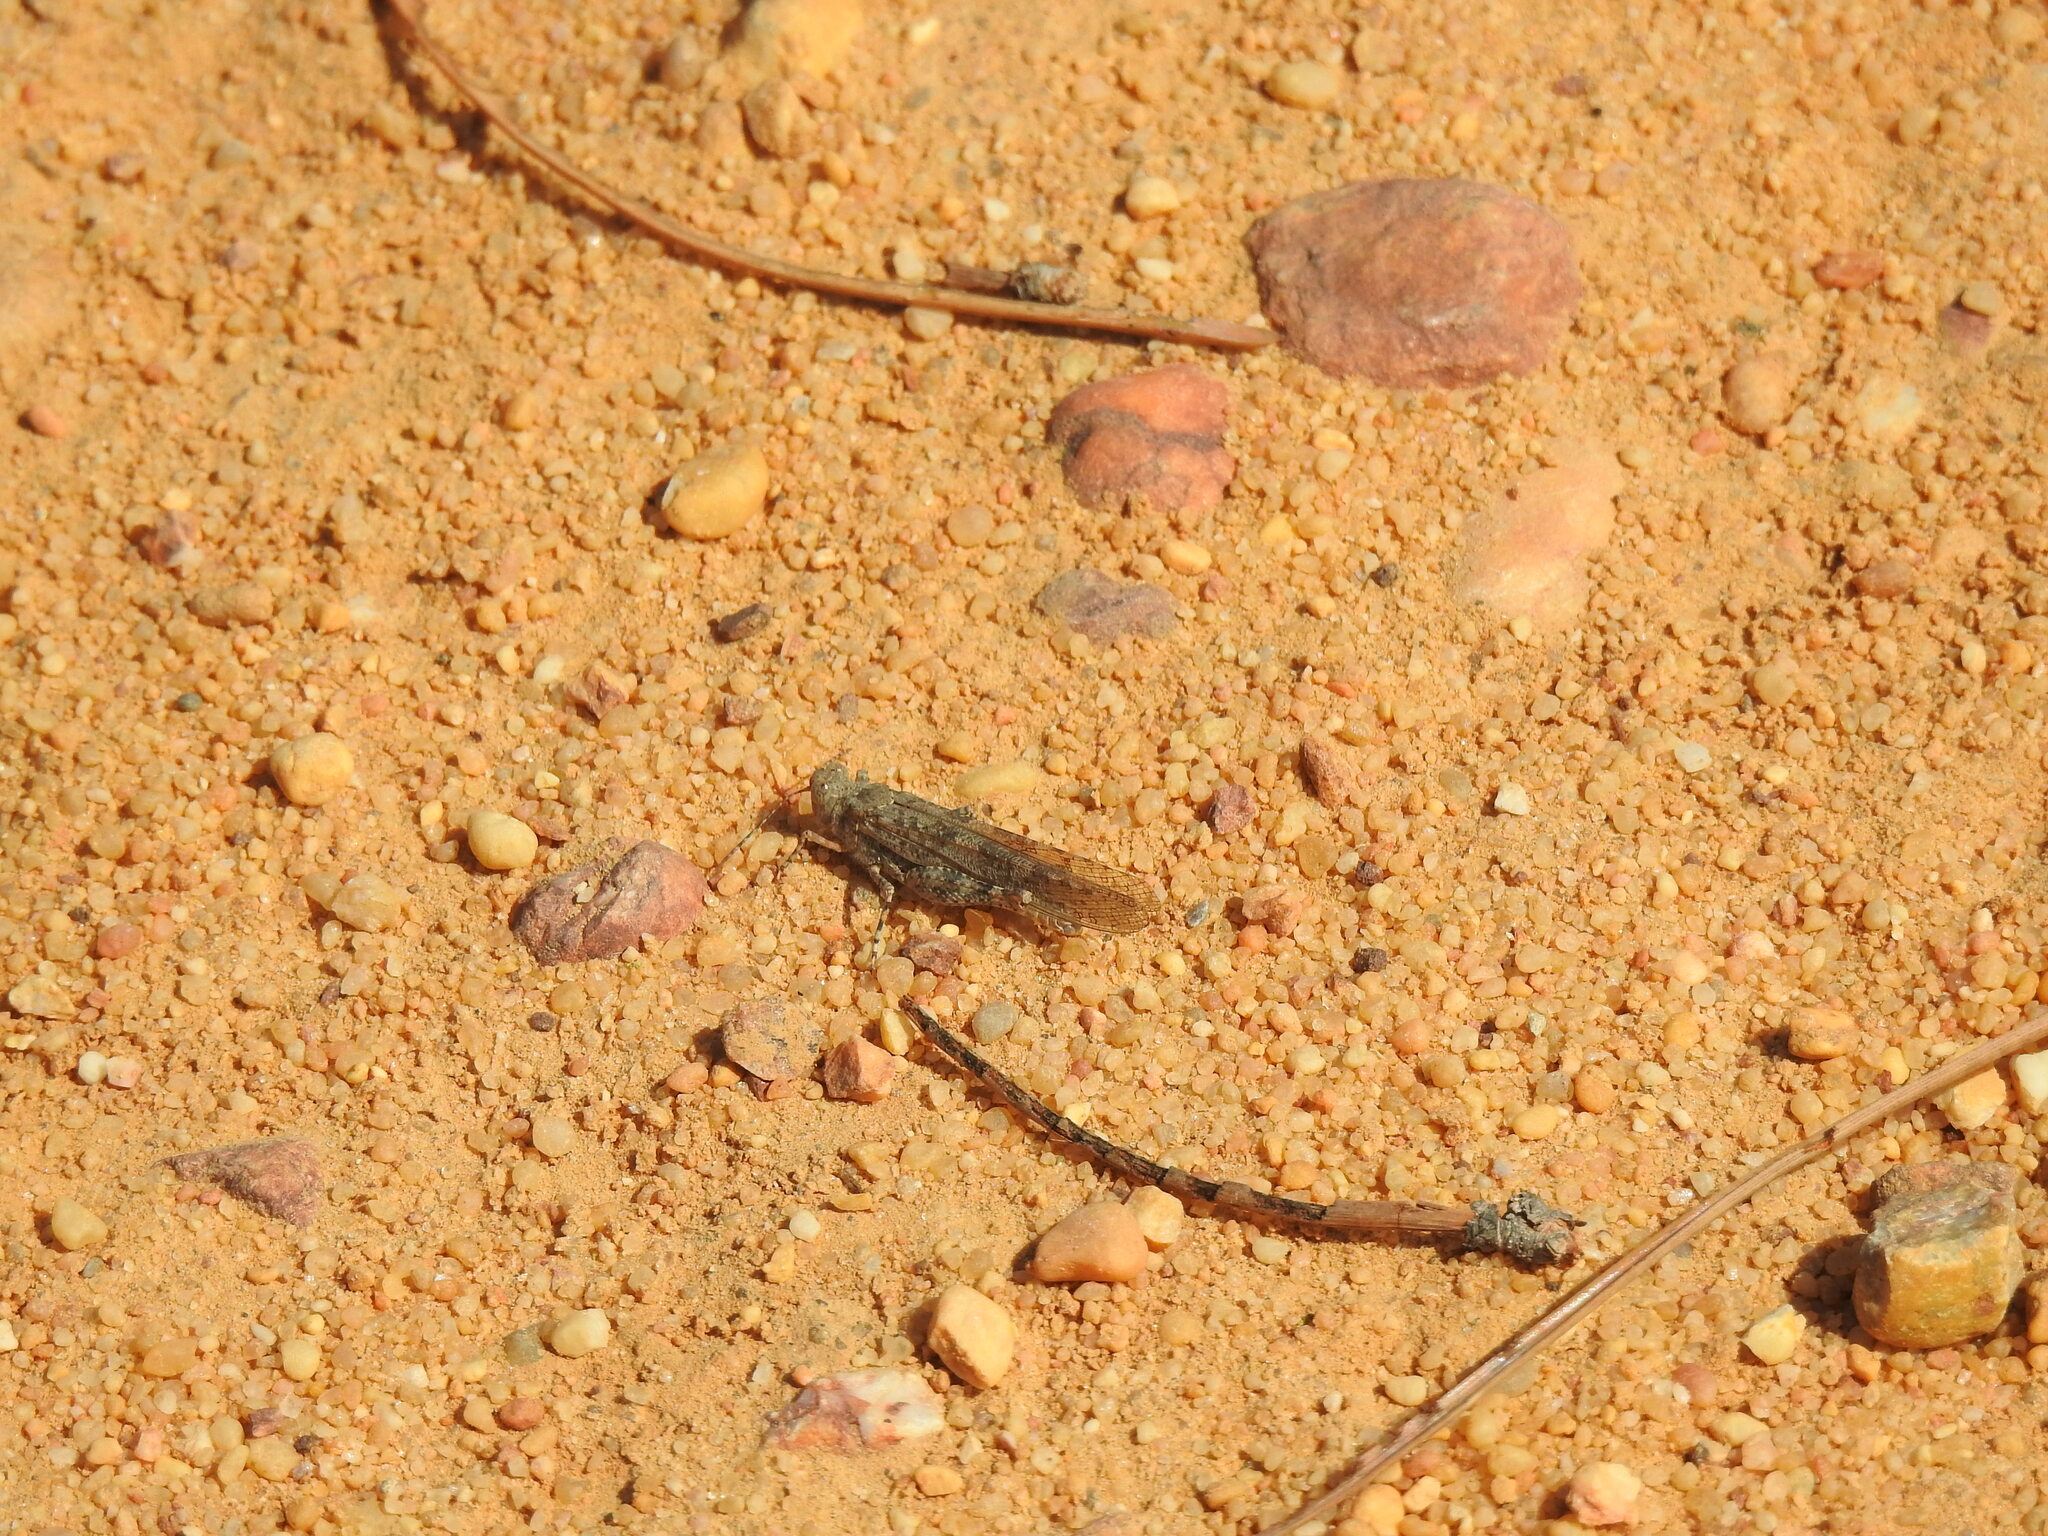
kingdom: Animalia
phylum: Arthropoda
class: Insecta
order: Orthoptera
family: Acrididae
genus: Sphingonotus
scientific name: Sphingonotus rubescens
